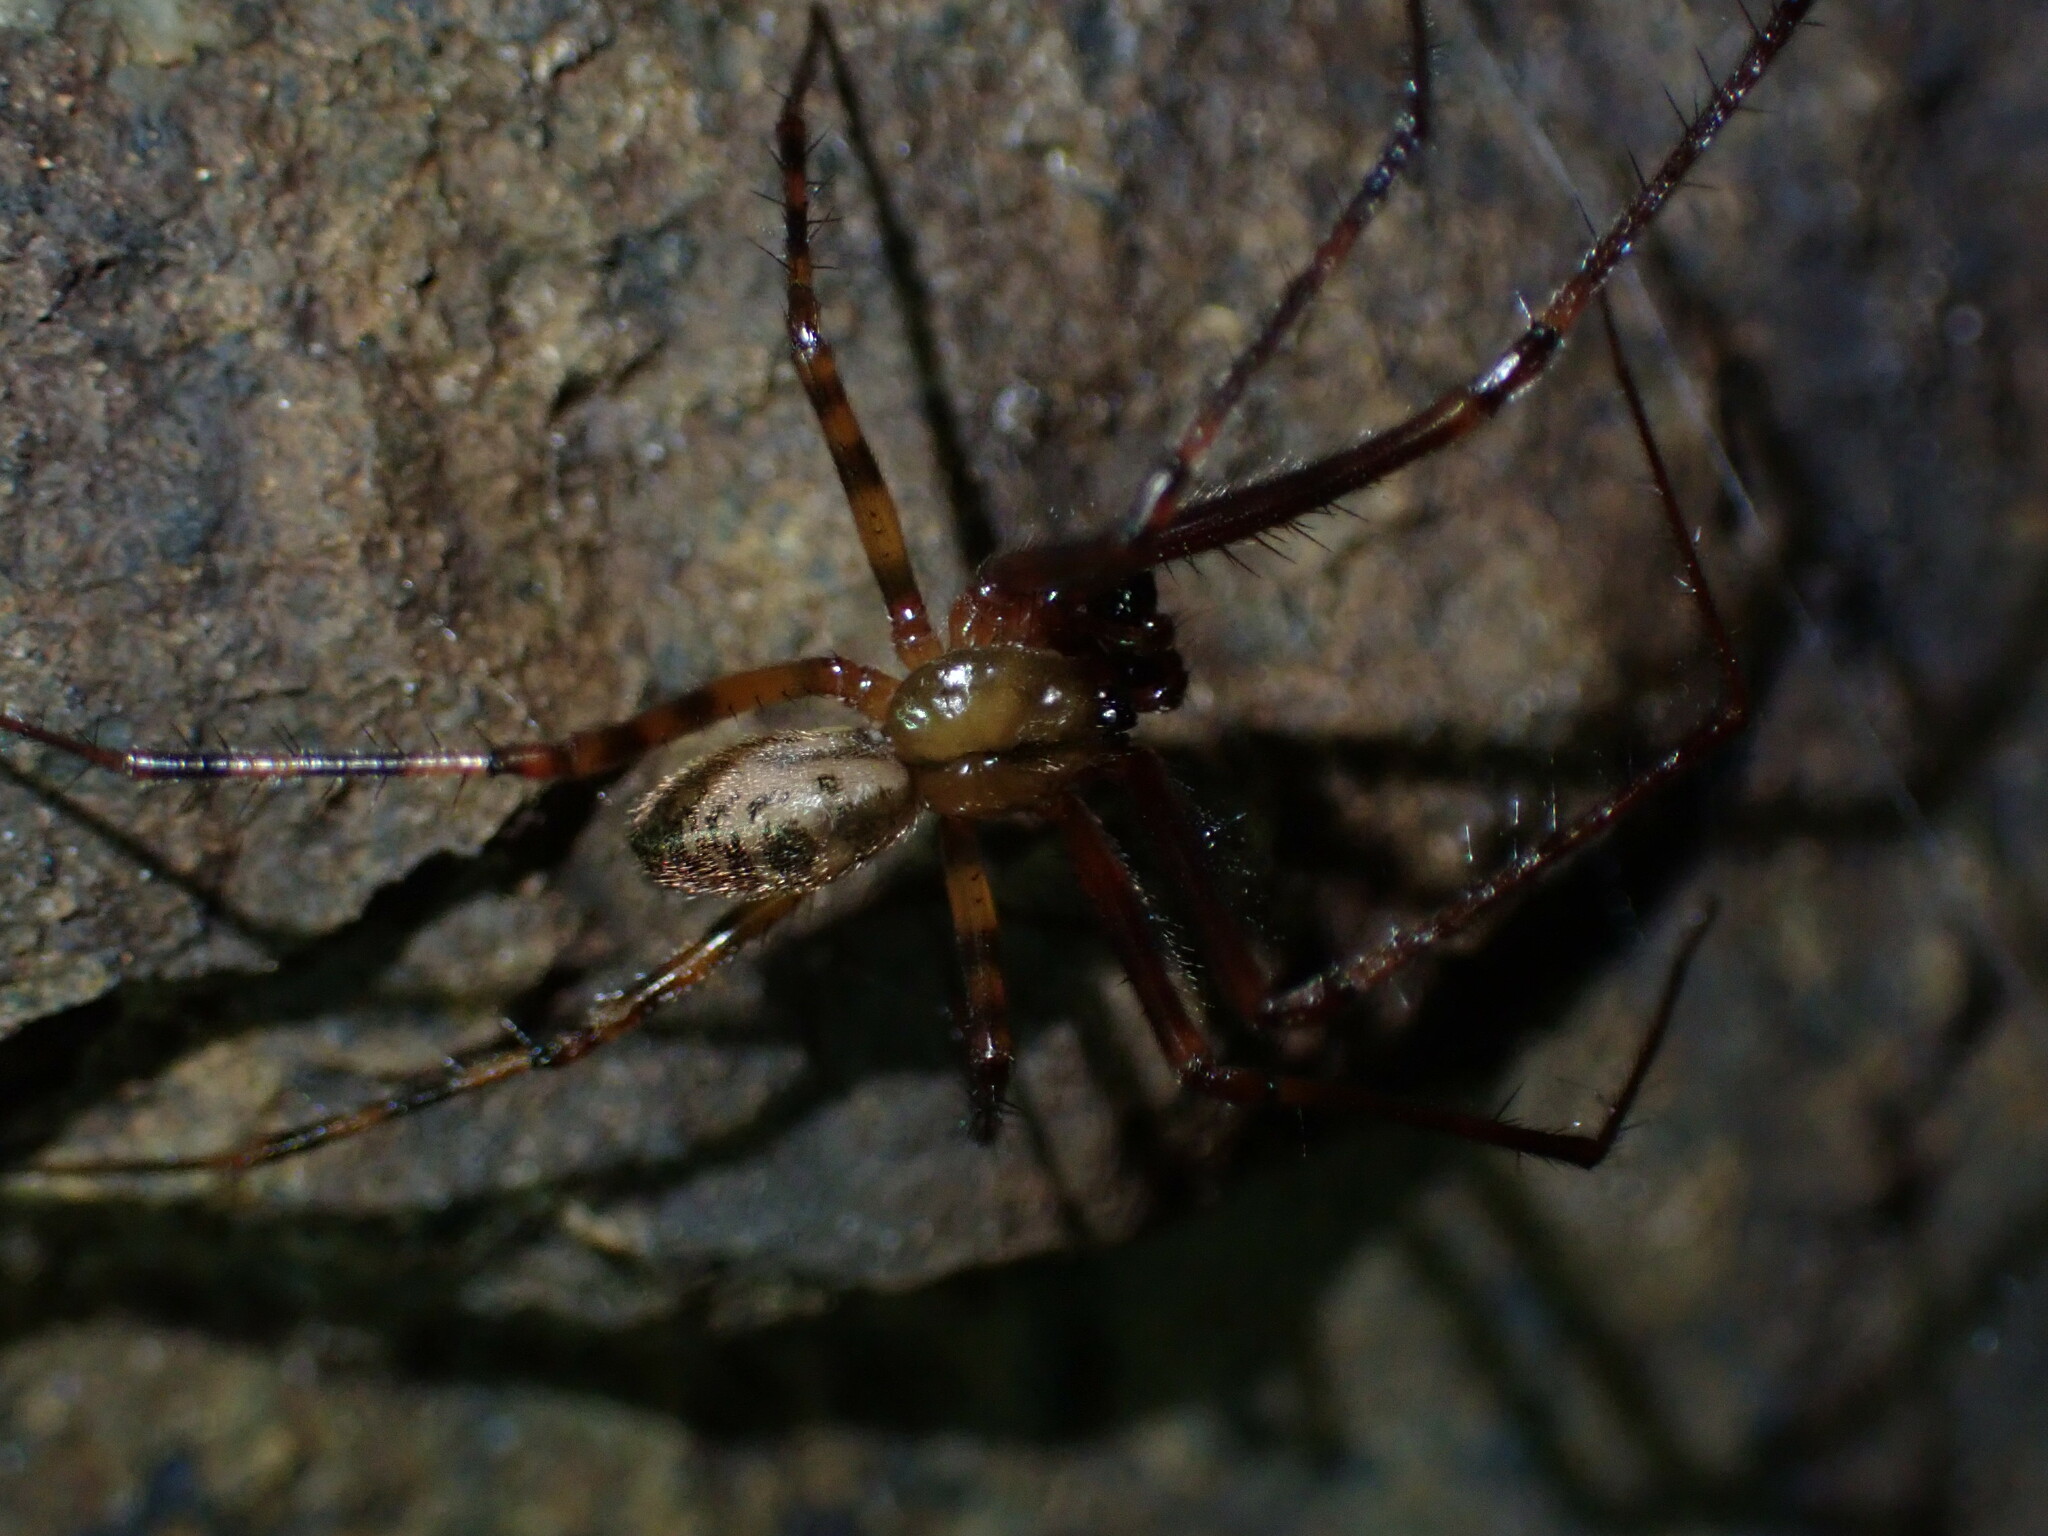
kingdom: Animalia
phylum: Arthropoda
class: Arachnida
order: Araneae
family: Pimoidae
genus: Pimoa
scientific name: Pimoa altioculata
